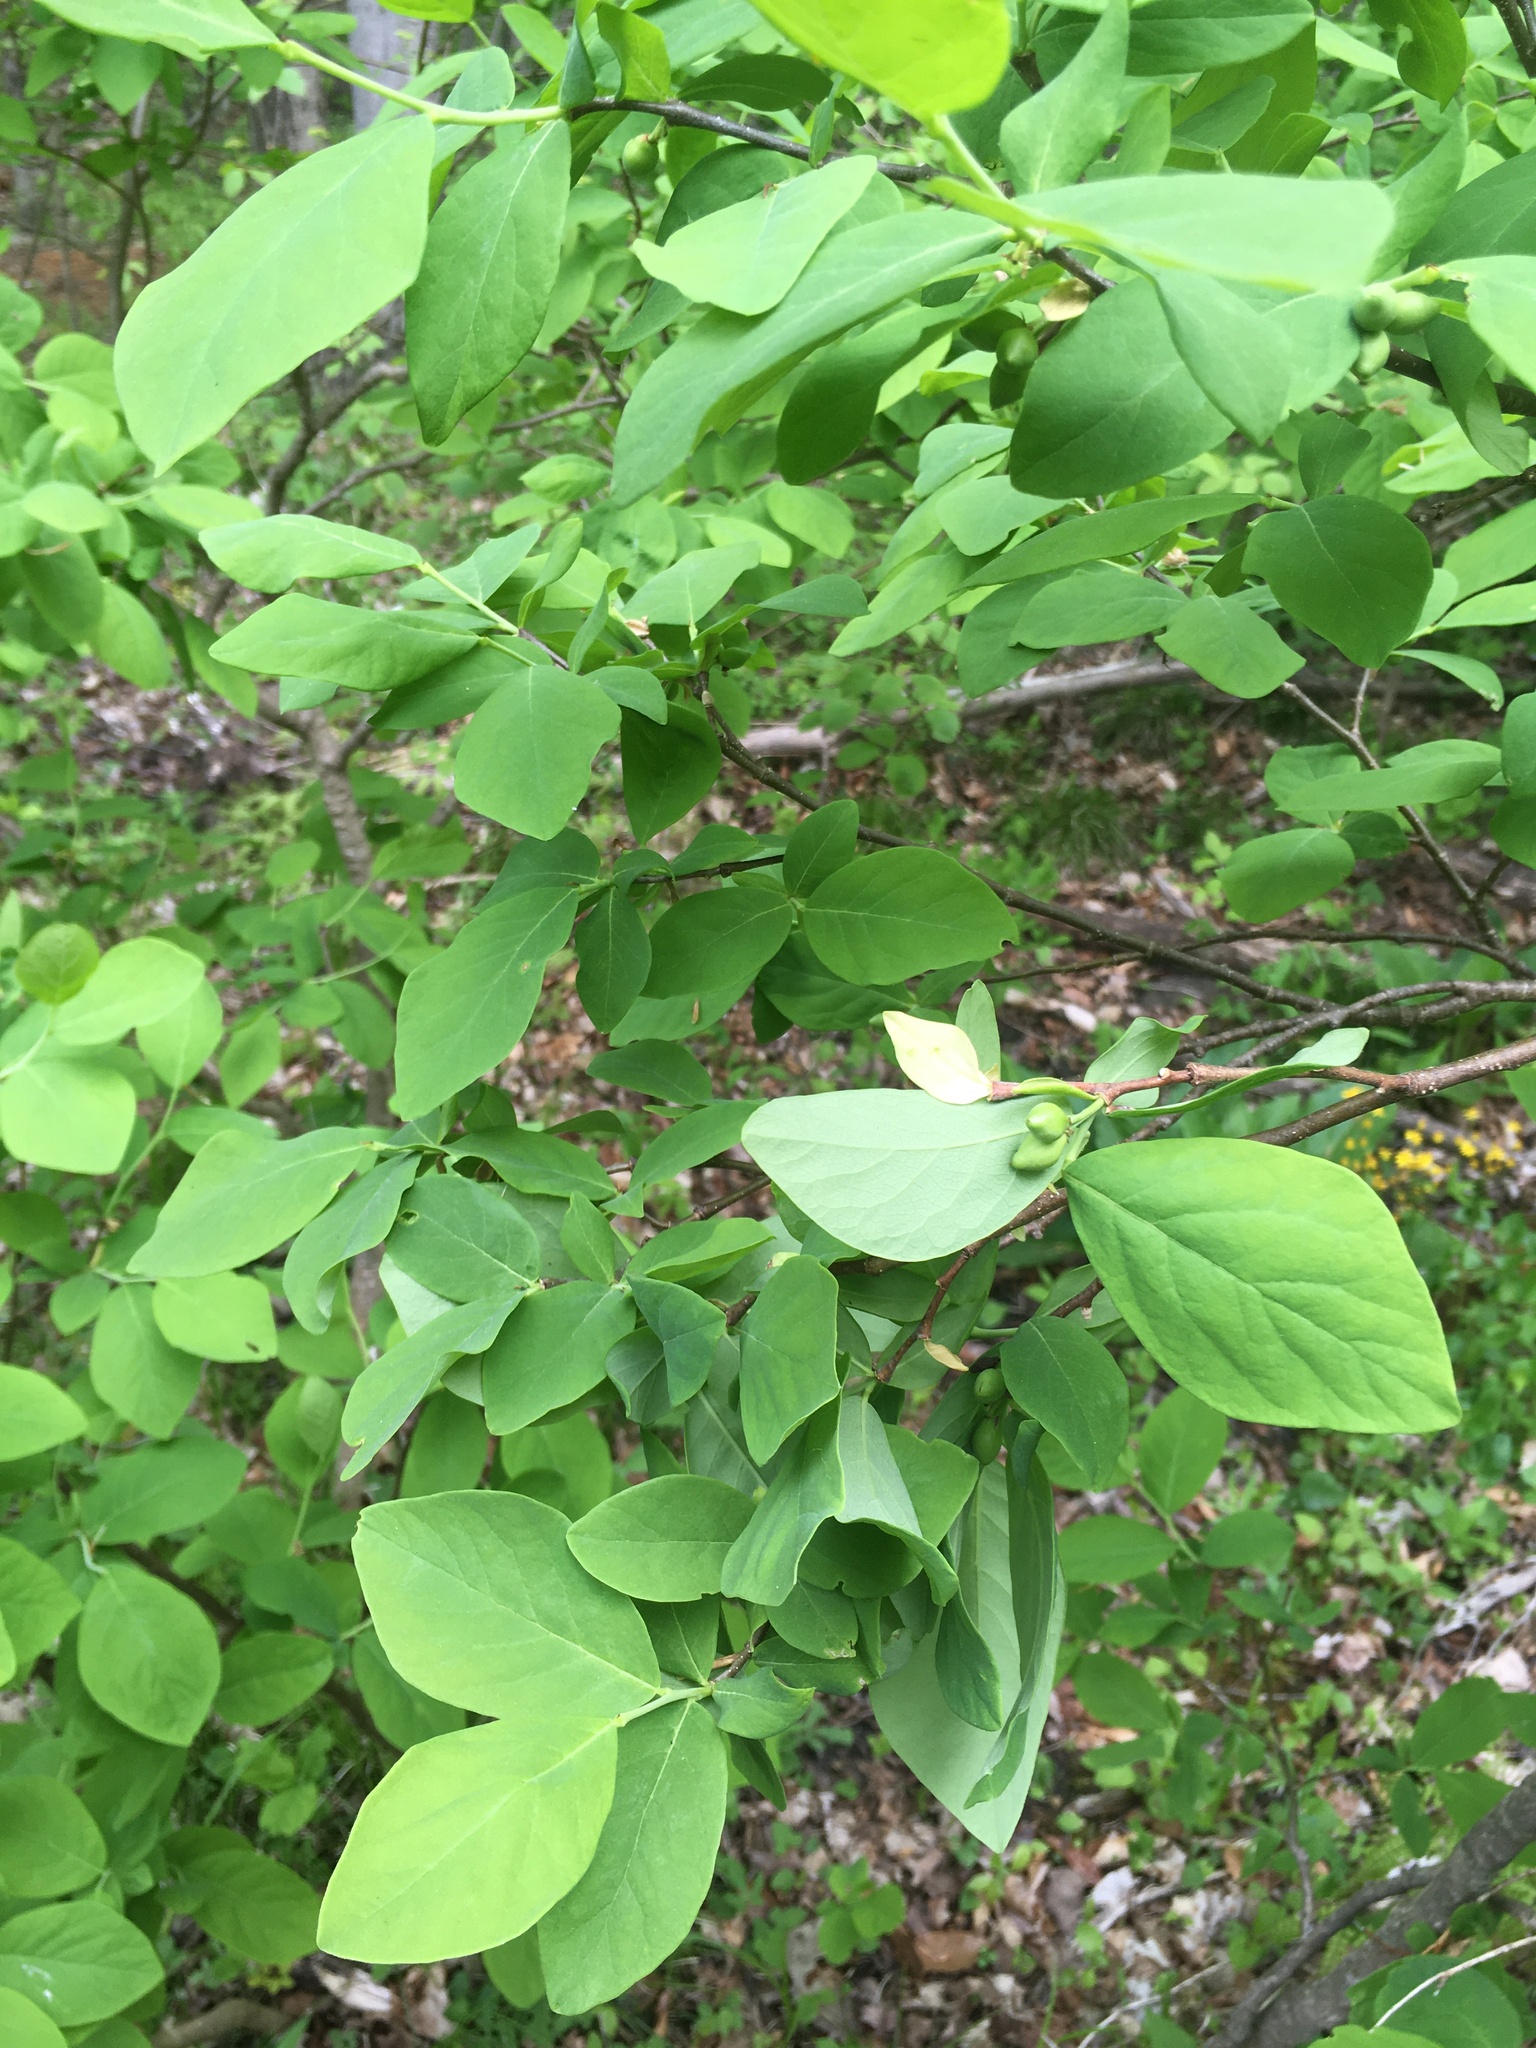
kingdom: Plantae
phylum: Tracheophyta
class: Magnoliopsida
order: Malvales
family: Thymelaeaceae
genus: Dirca
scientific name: Dirca palustris
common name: Leatherwood
